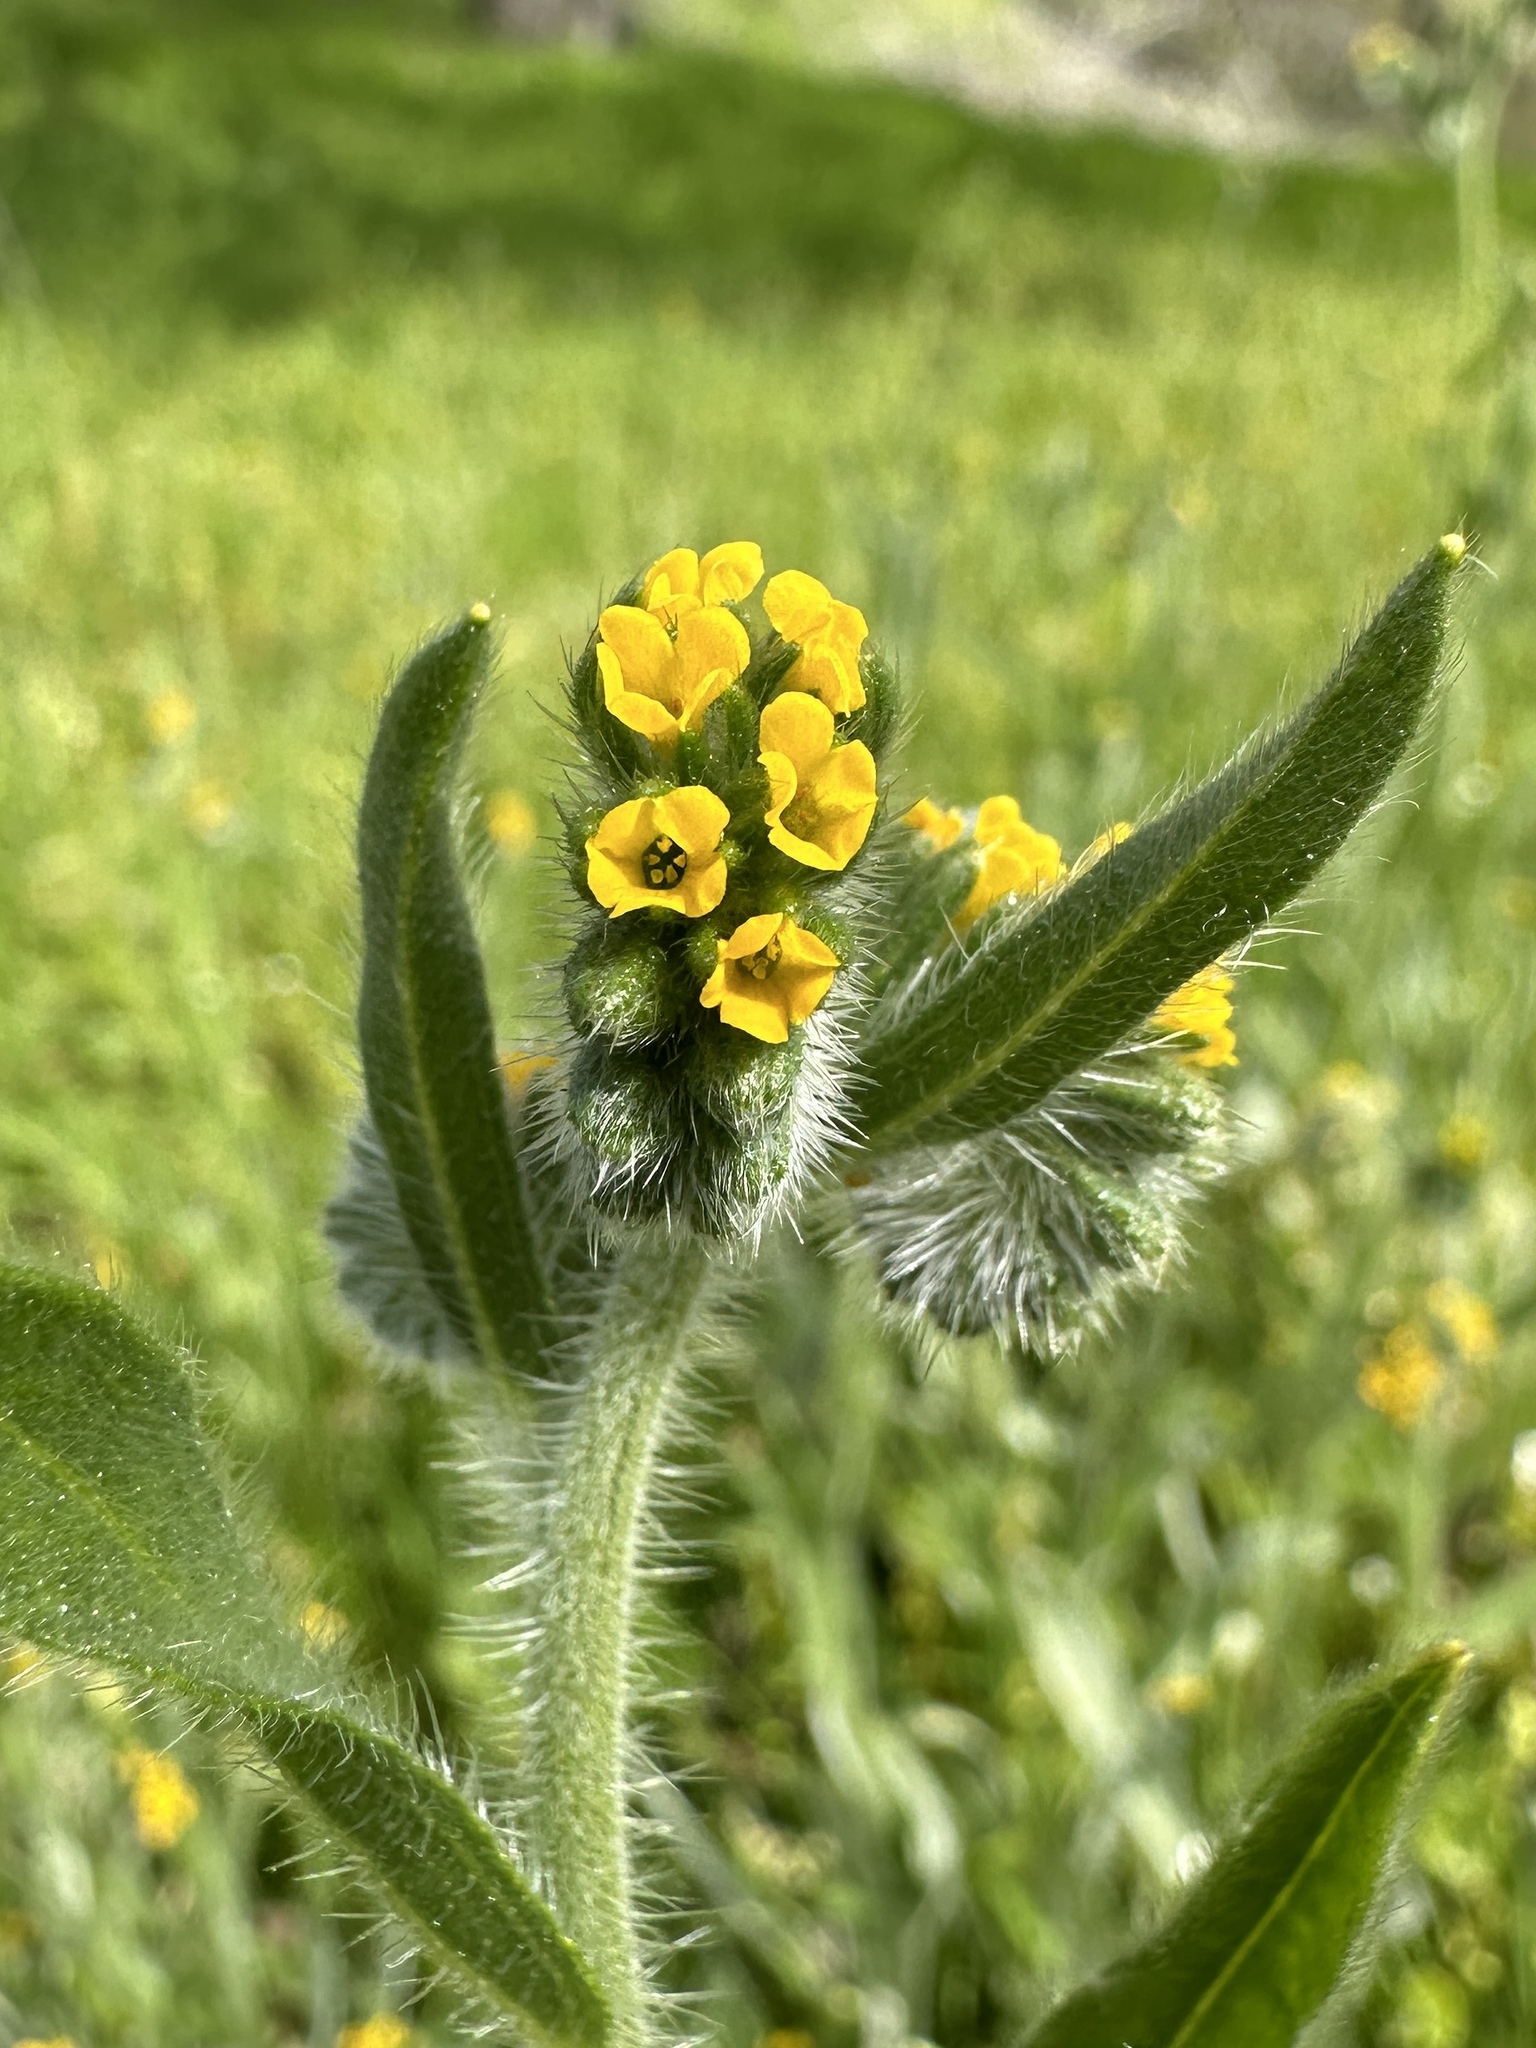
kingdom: Plantae
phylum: Tracheophyta
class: Magnoliopsida
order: Boraginales
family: Boraginaceae
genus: Amsinckia
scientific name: Amsinckia menziesii
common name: Menzies' fiddleneck
